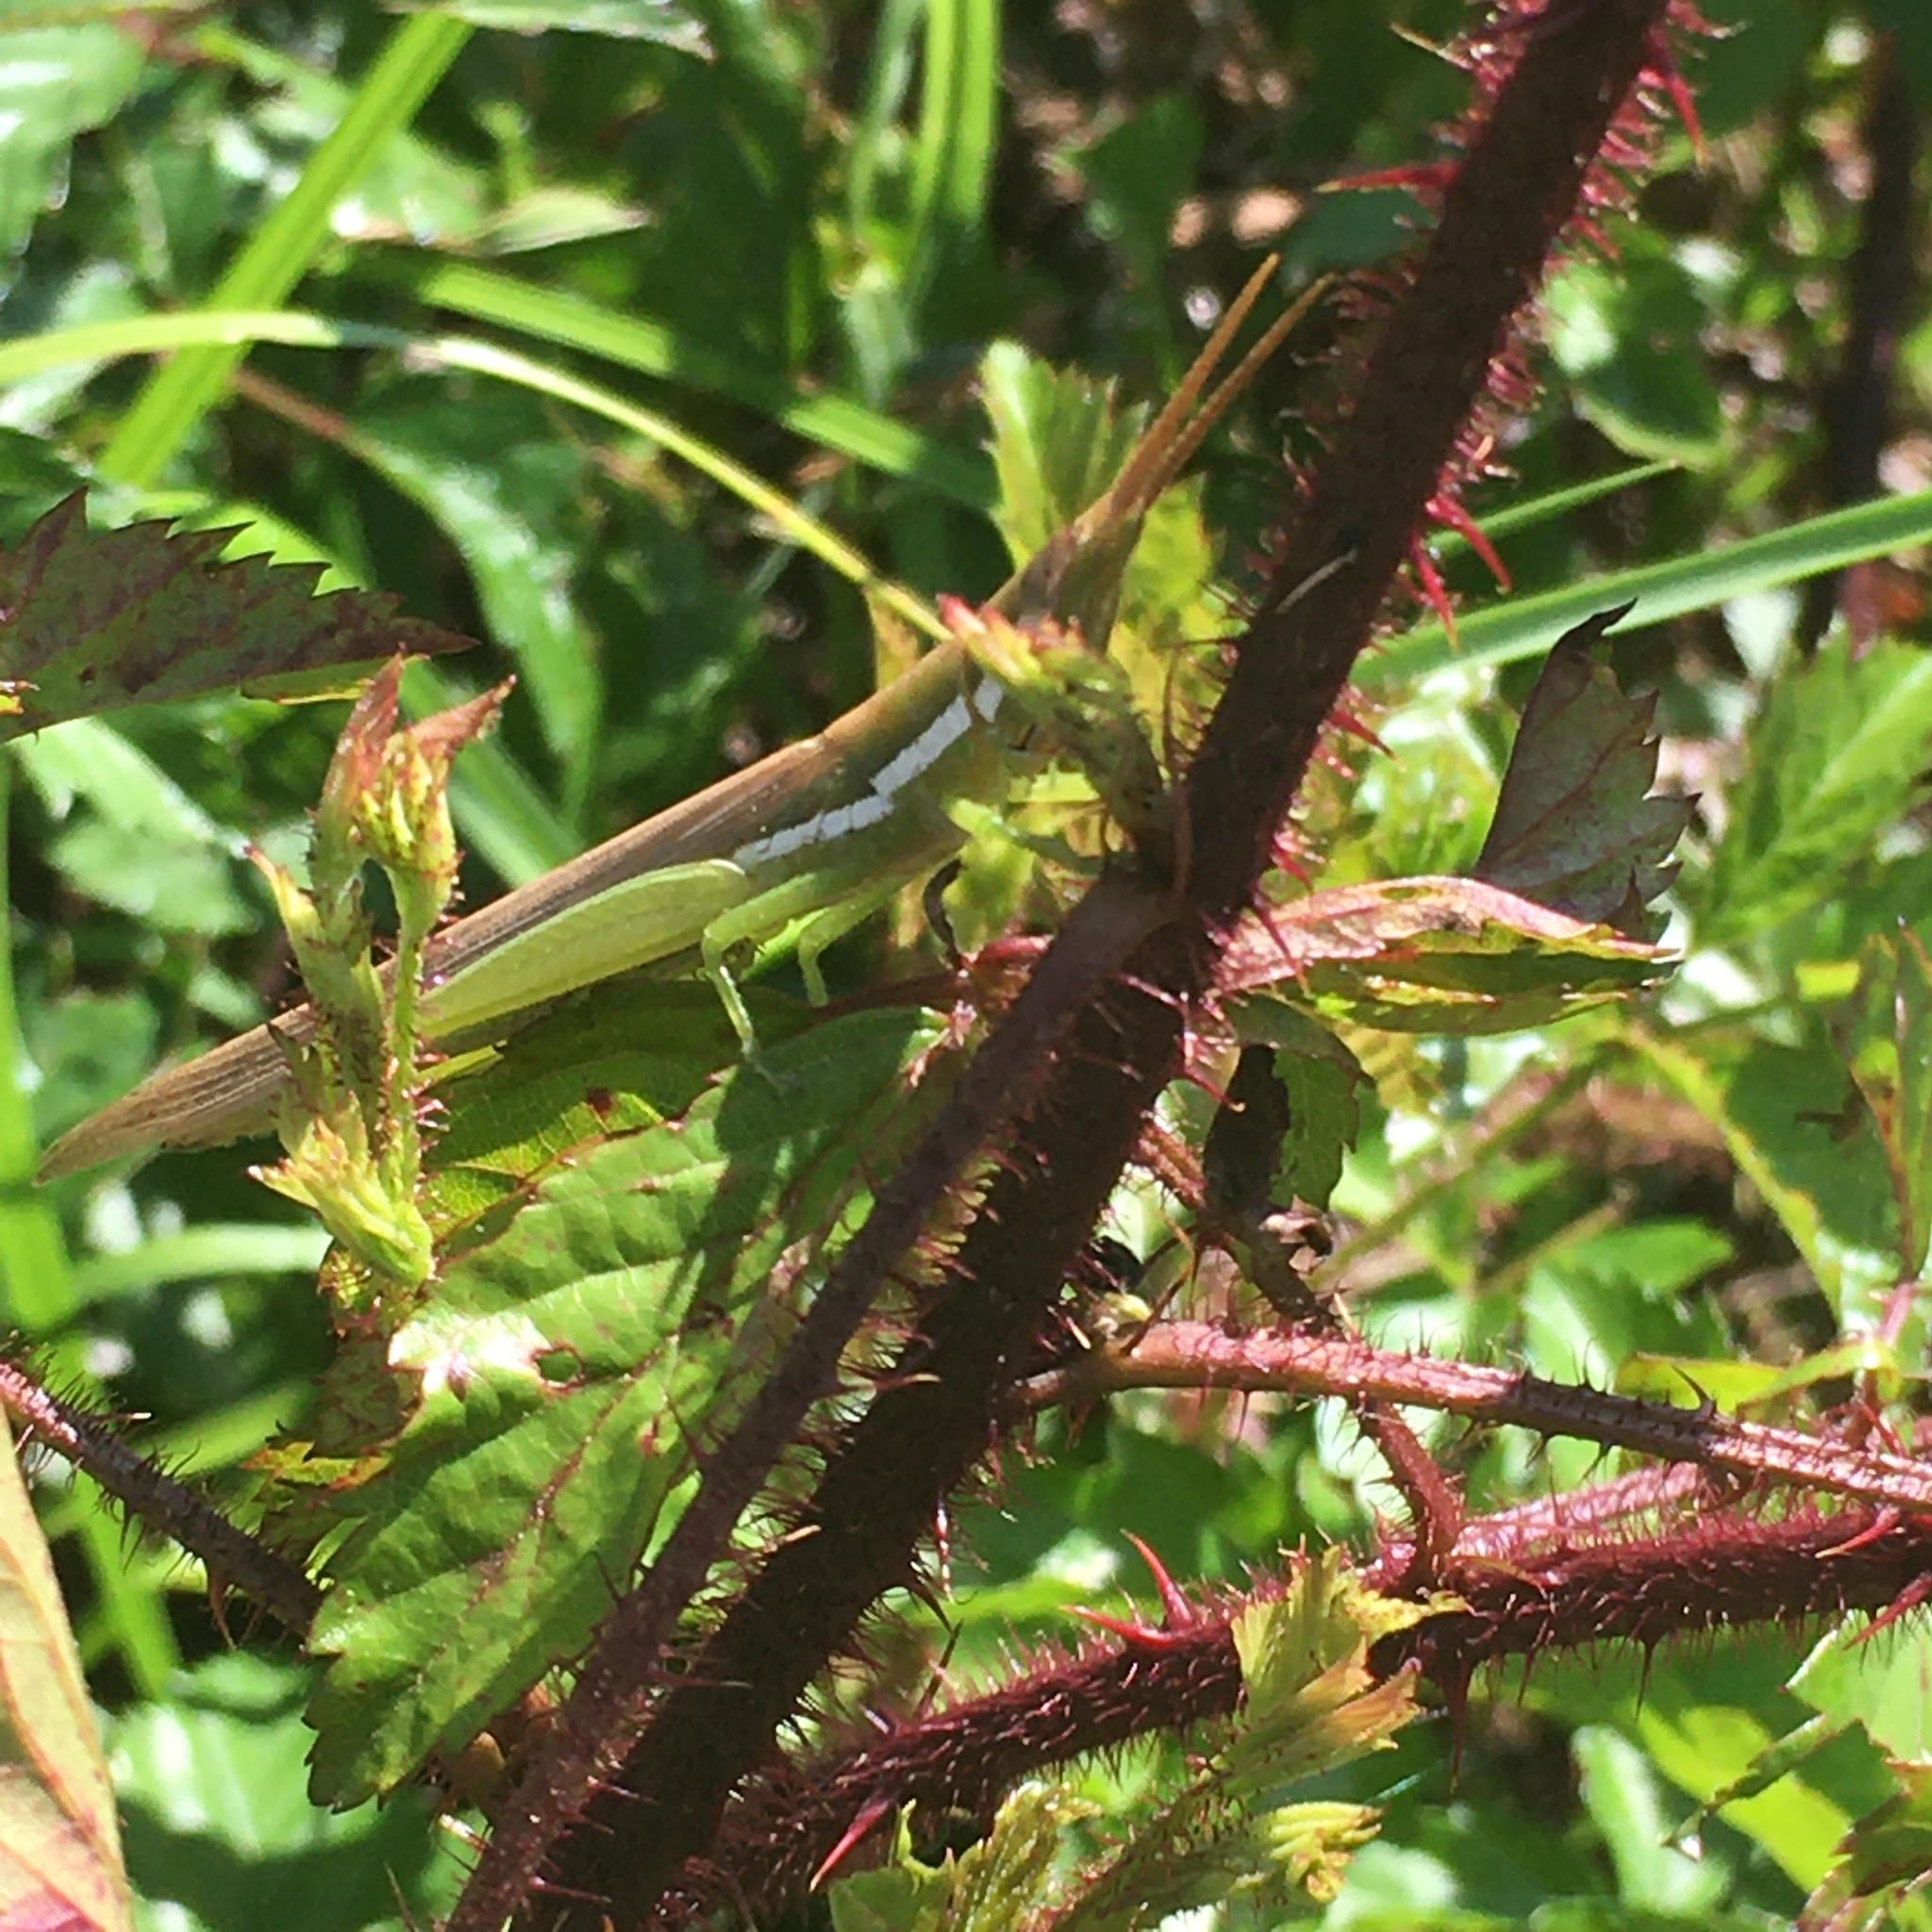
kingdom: Animalia
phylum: Arthropoda
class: Insecta
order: Orthoptera
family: Acrididae
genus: Leptysma
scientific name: Leptysma marginicollis
